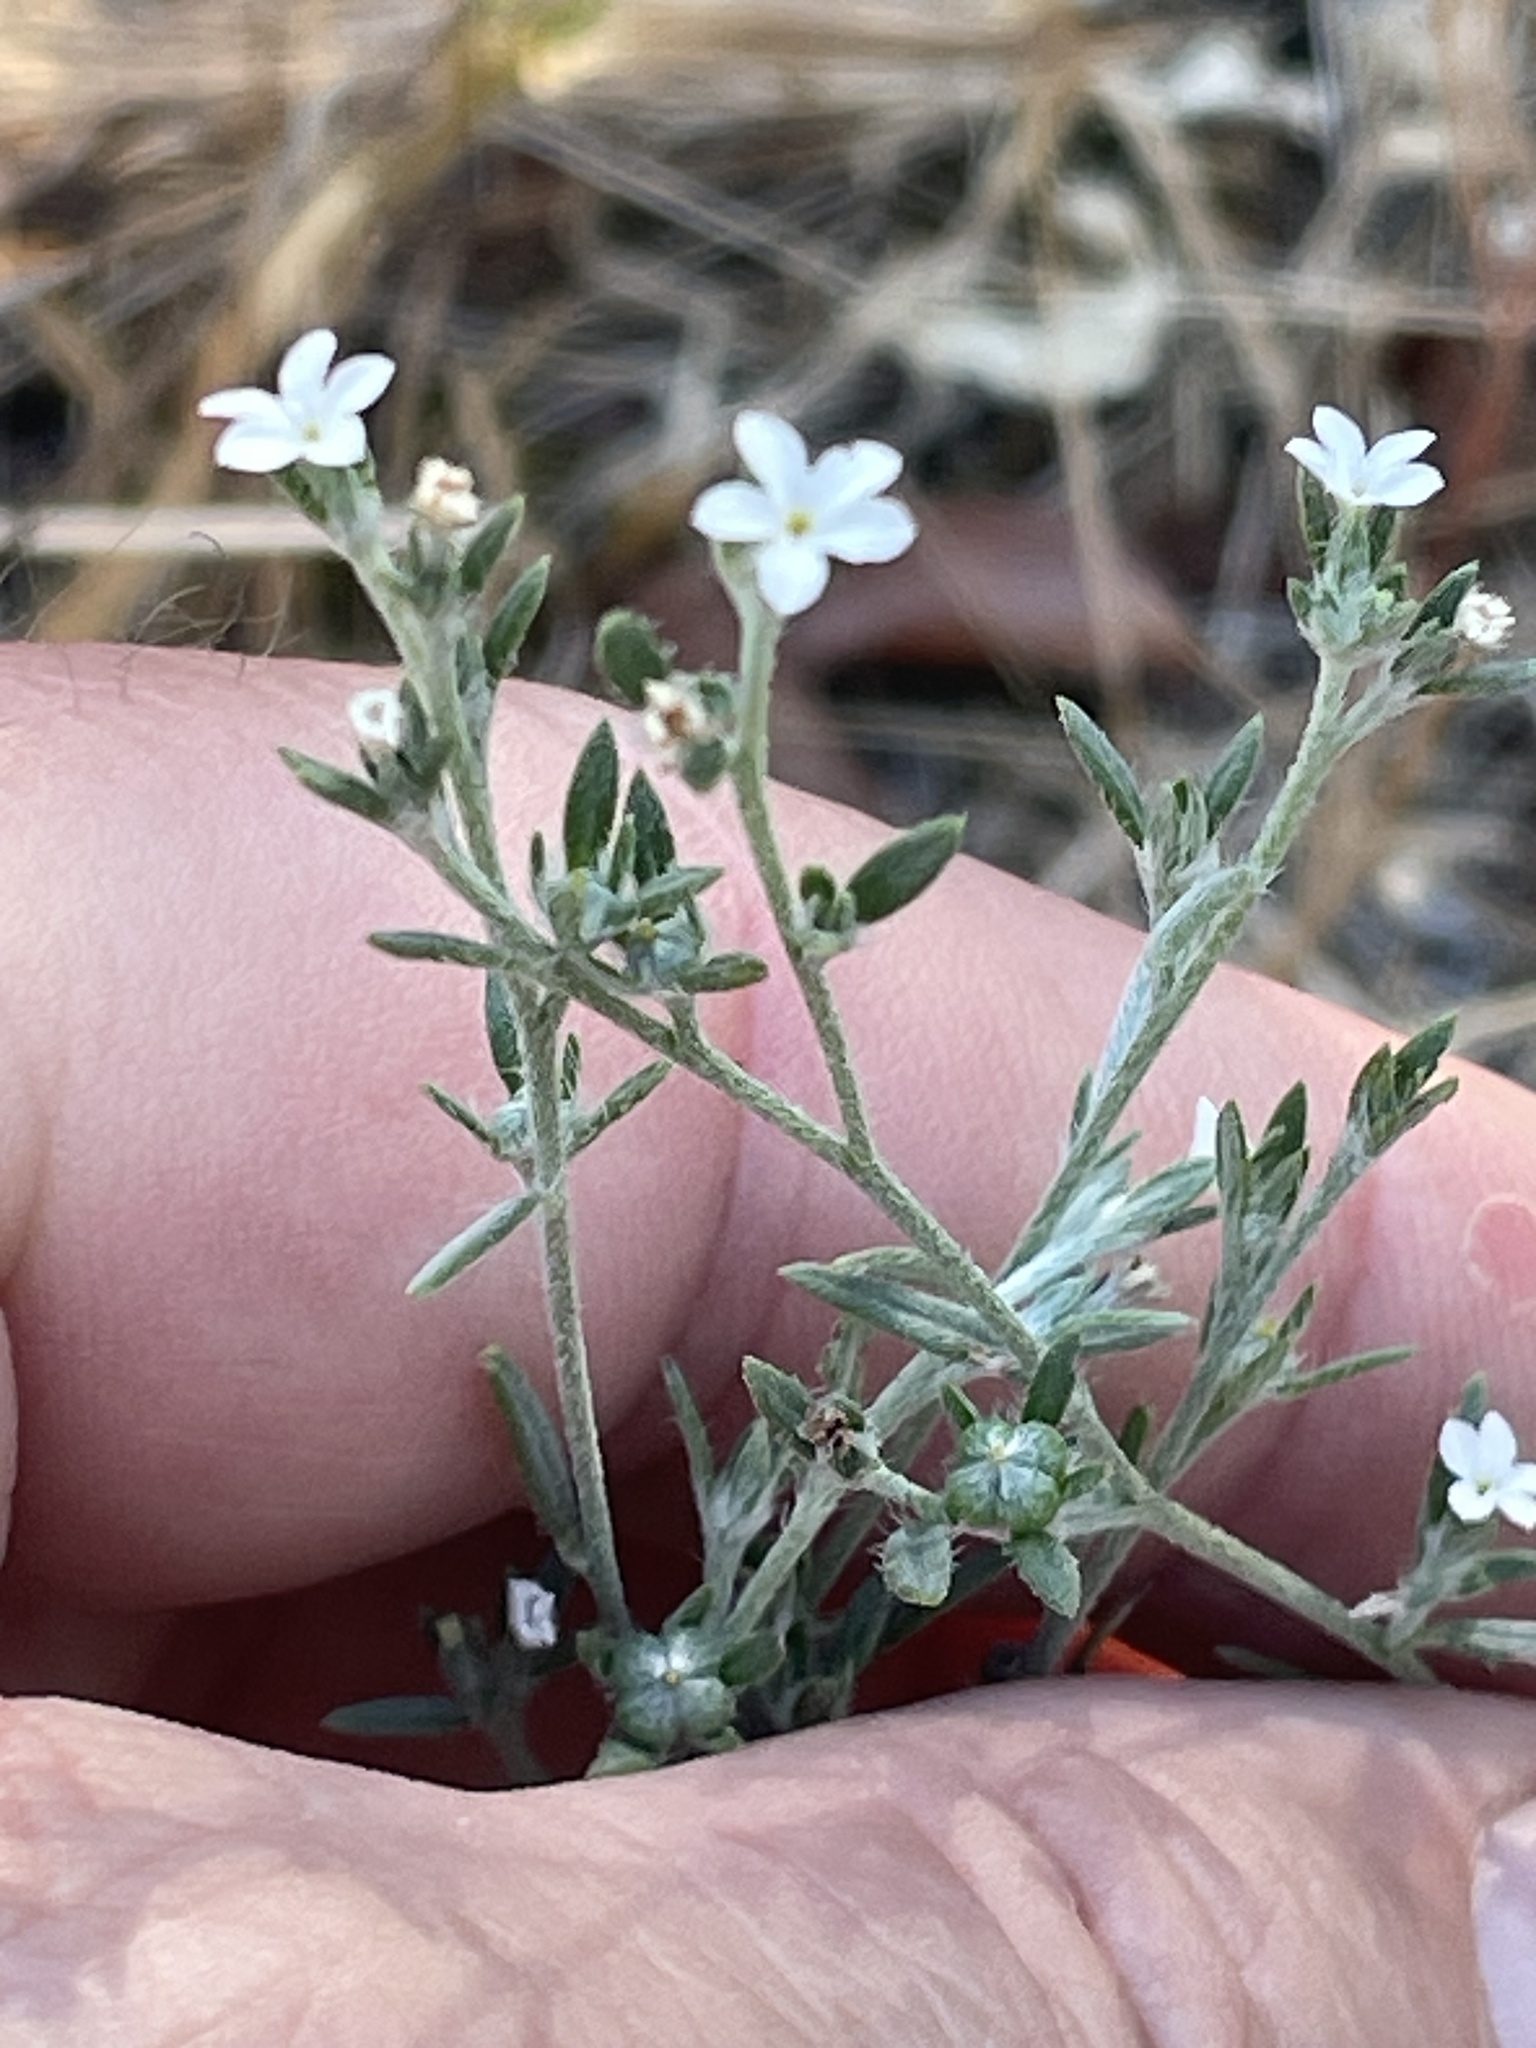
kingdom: Plantae
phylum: Tracheophyta
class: Magnoliopsida
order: Boraginales
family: Heliotropiaceae
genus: Euploca
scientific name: Euploca tenella
